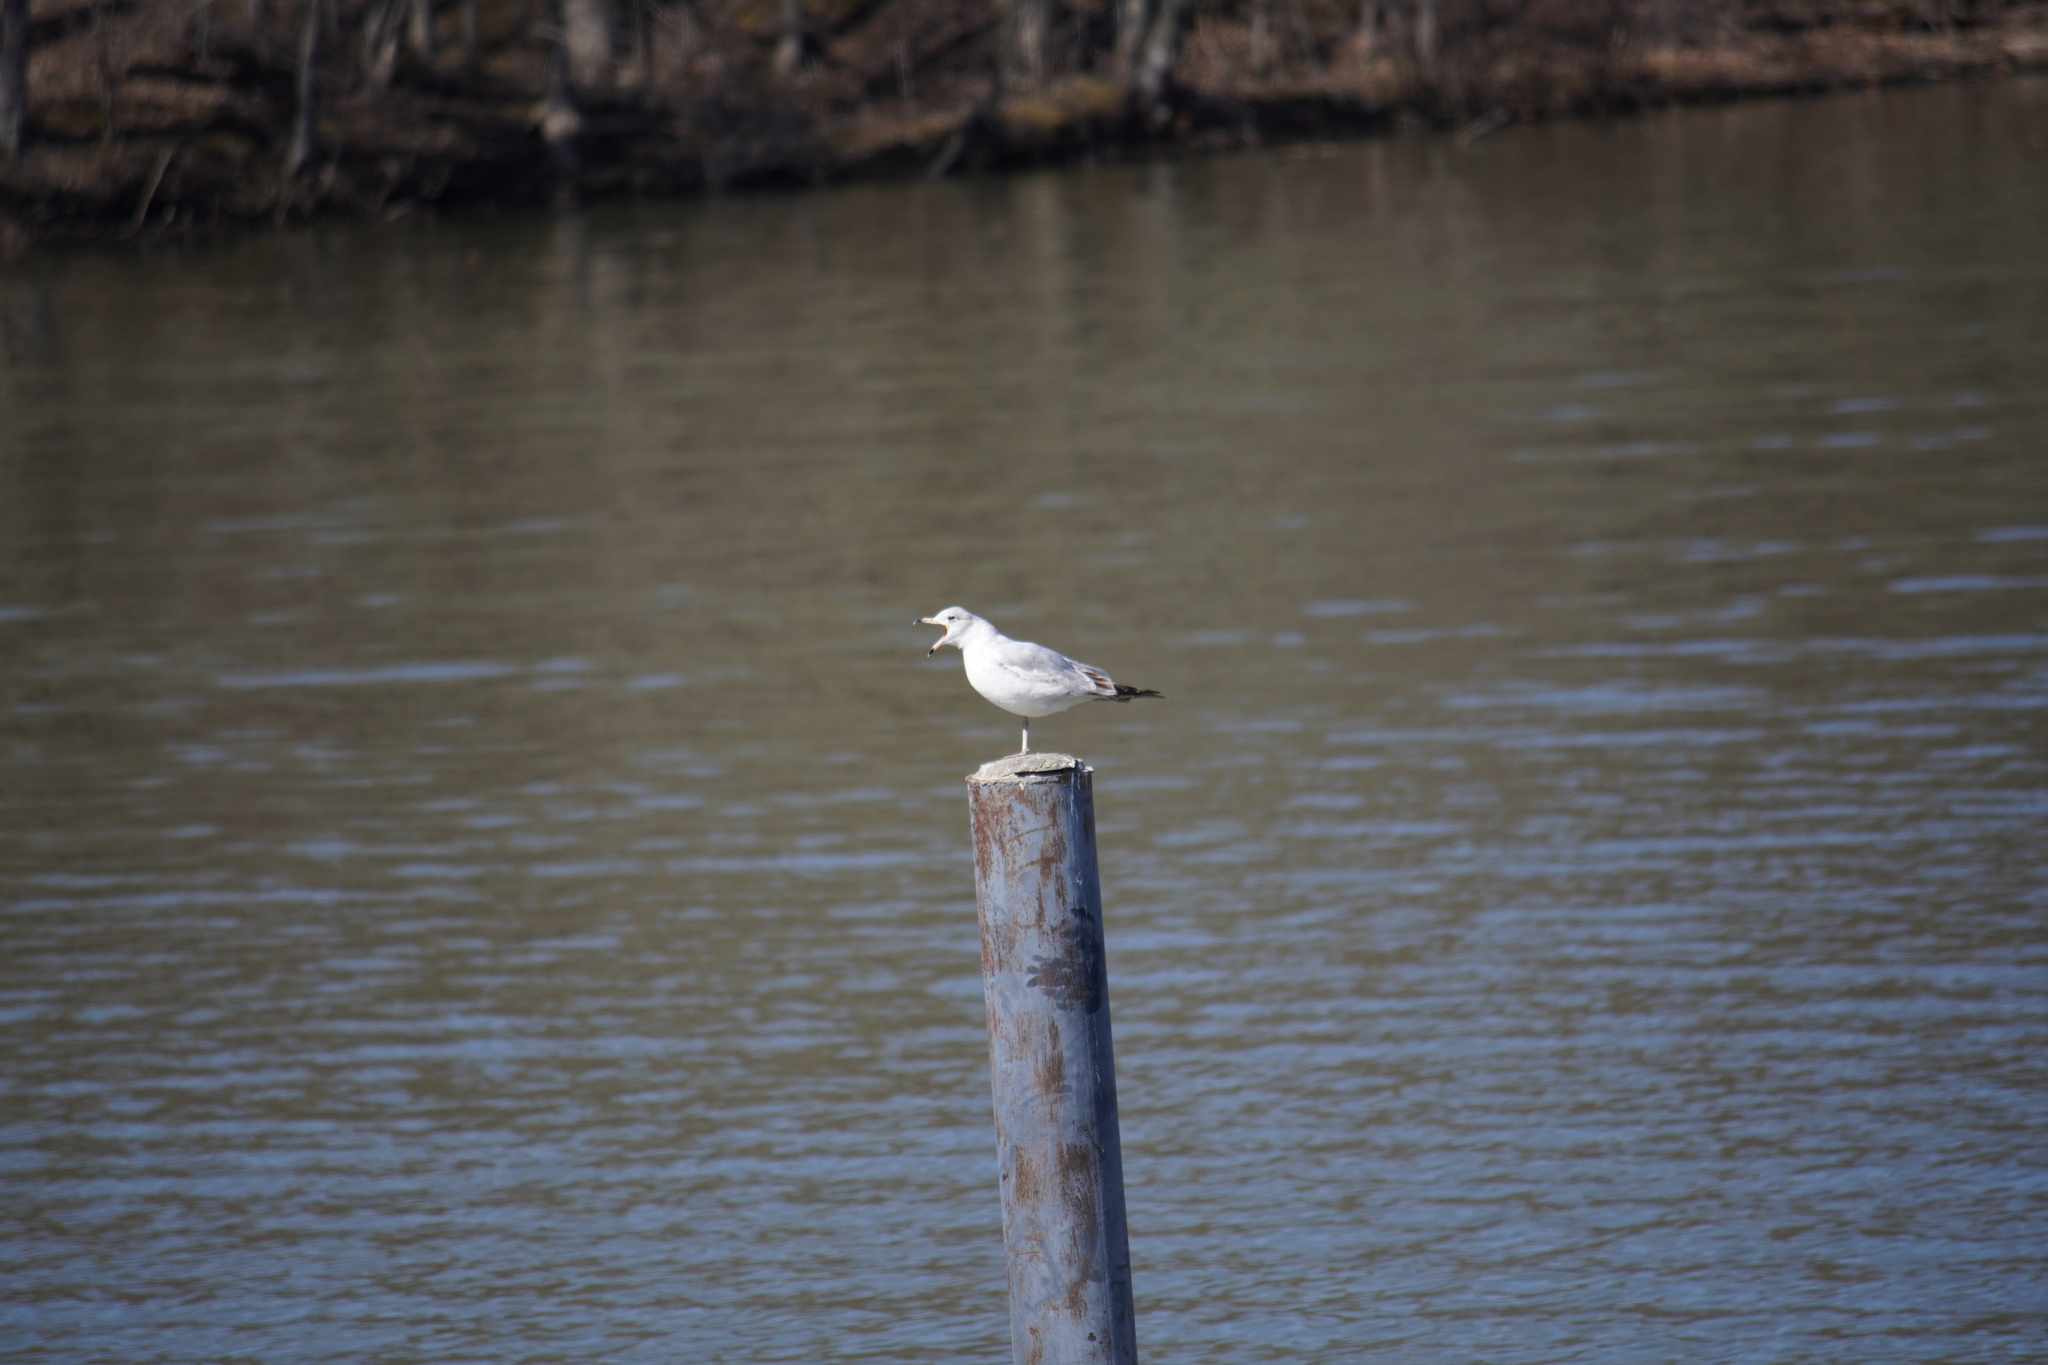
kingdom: Animalia
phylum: Chordata
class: Aves
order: Charadriiformes
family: Laridae
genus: Larus
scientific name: Larus delawarensis
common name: Ring-billed gull
